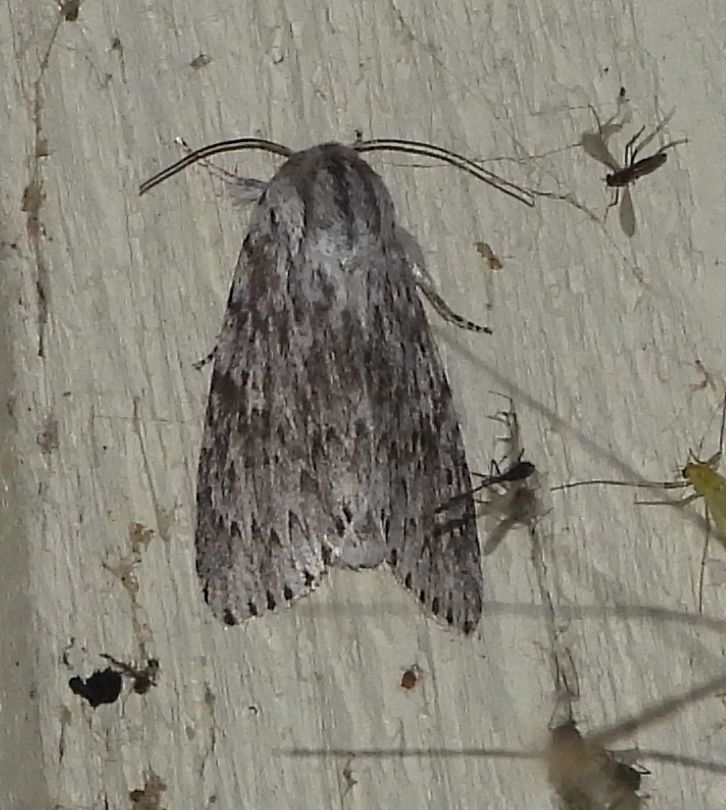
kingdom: Animalia
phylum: Arthropoda
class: Insecta
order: Lepidoptera
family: Noctuidae
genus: Acronicta
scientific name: Acronicta oblinita
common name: Smeared dagger
